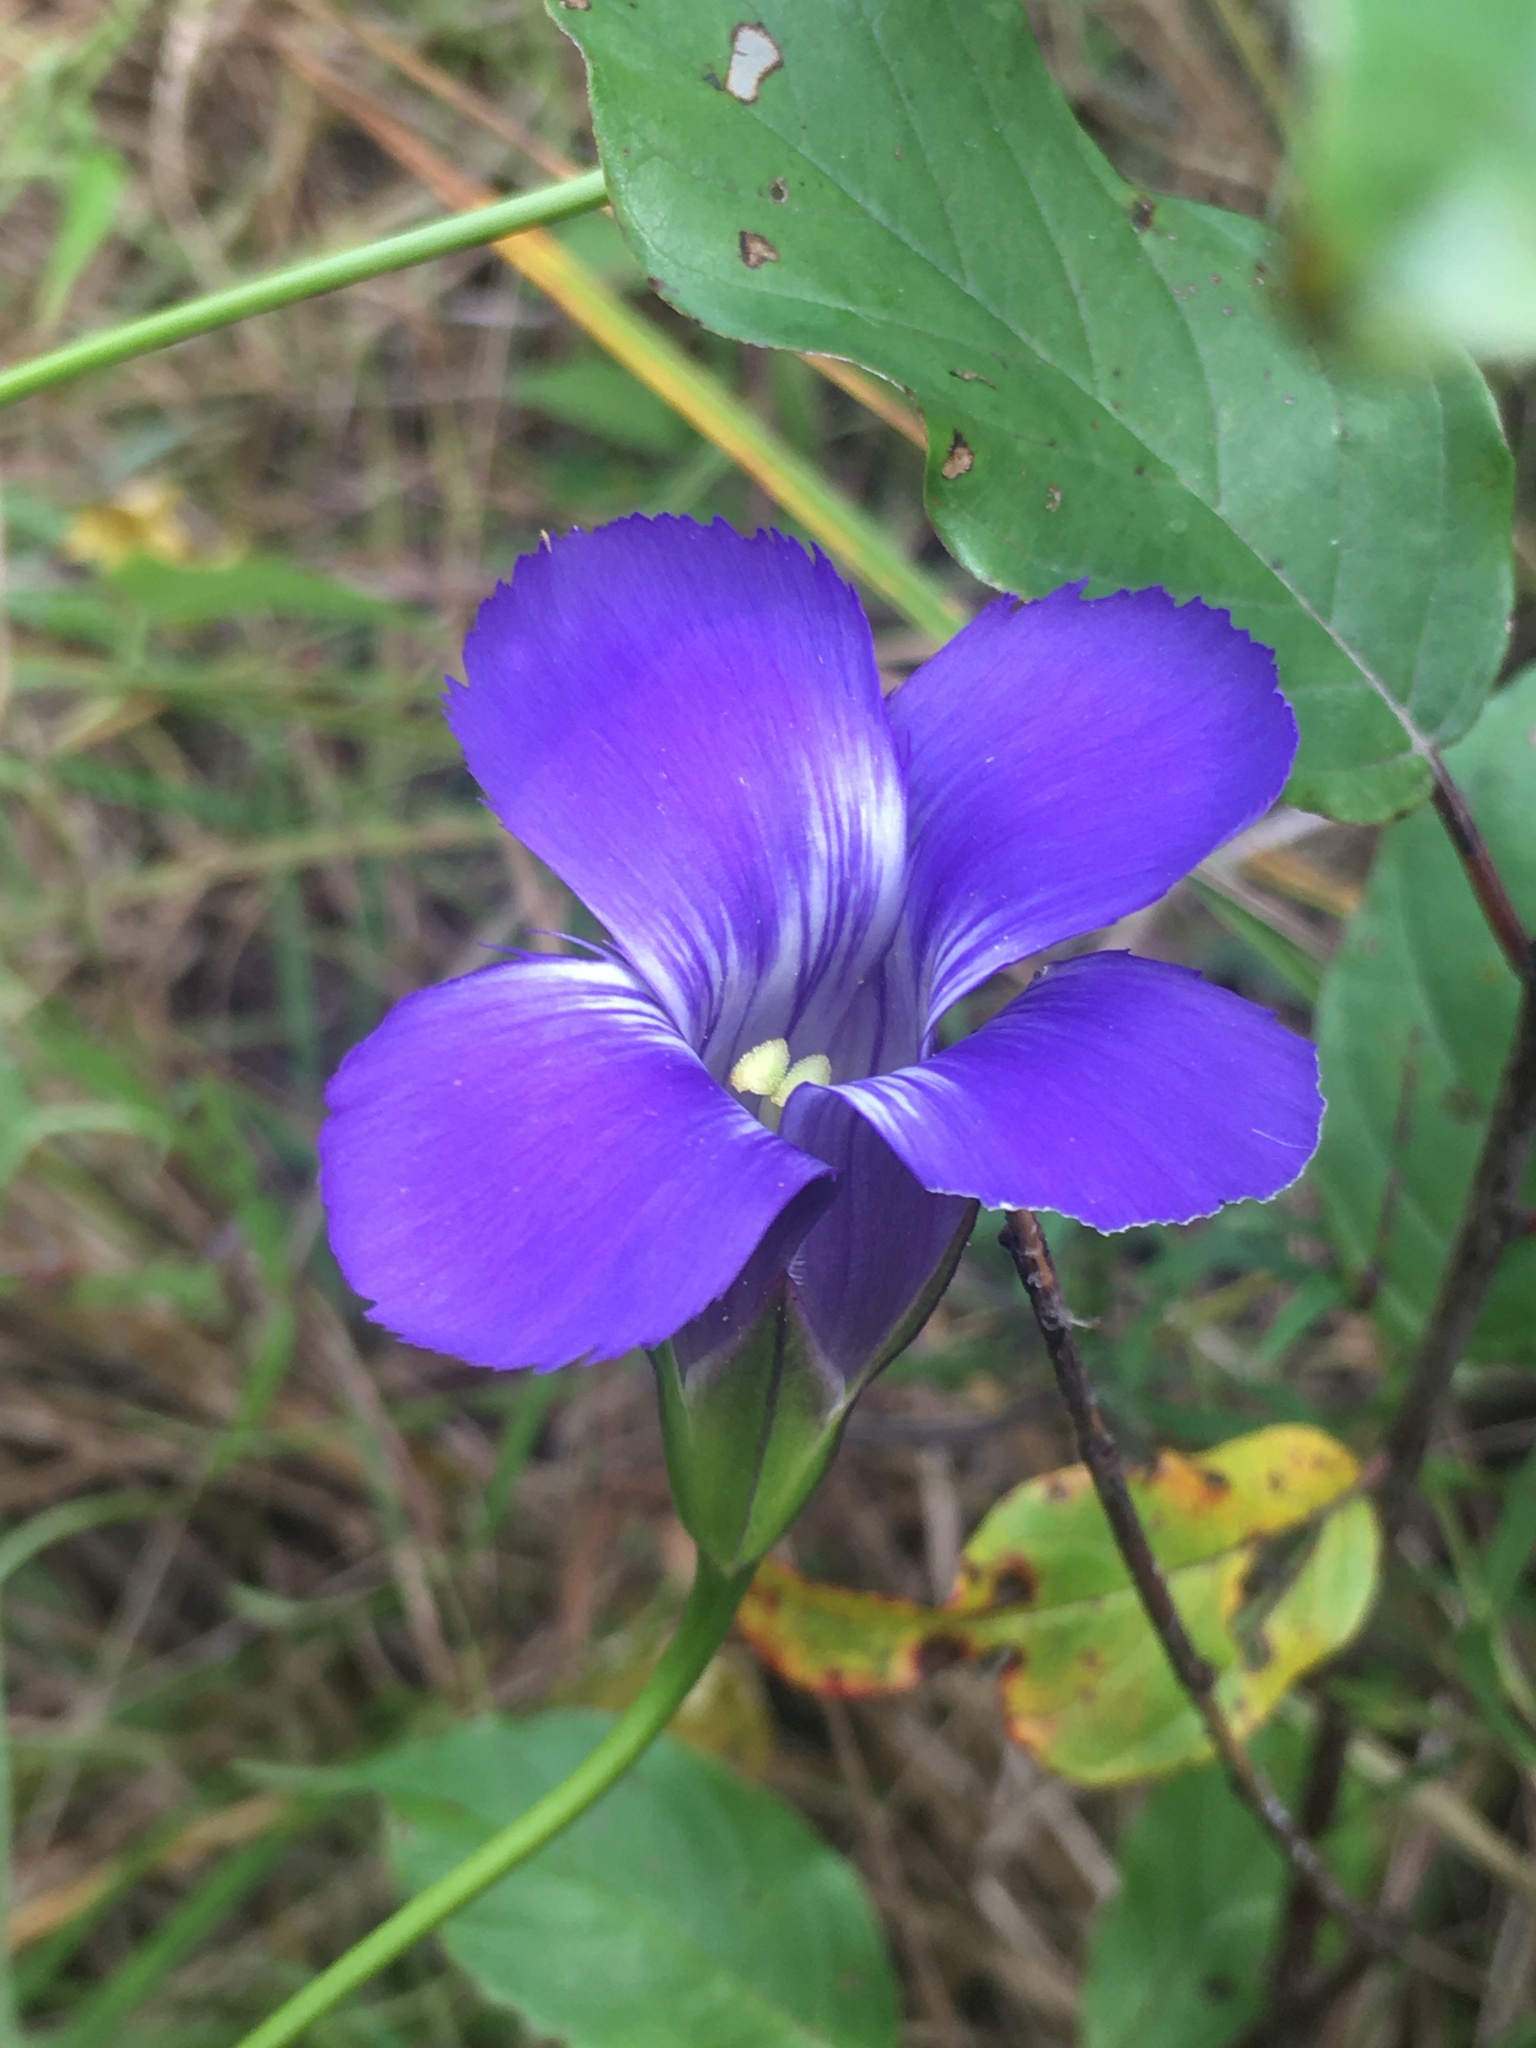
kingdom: Plantae
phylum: Tracheophyta
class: Magnoliopsida
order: Gentianales
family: Gentianaceae
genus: Gentianopsis
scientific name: Gentianopsis virgata
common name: Lesser fringed-gentian
